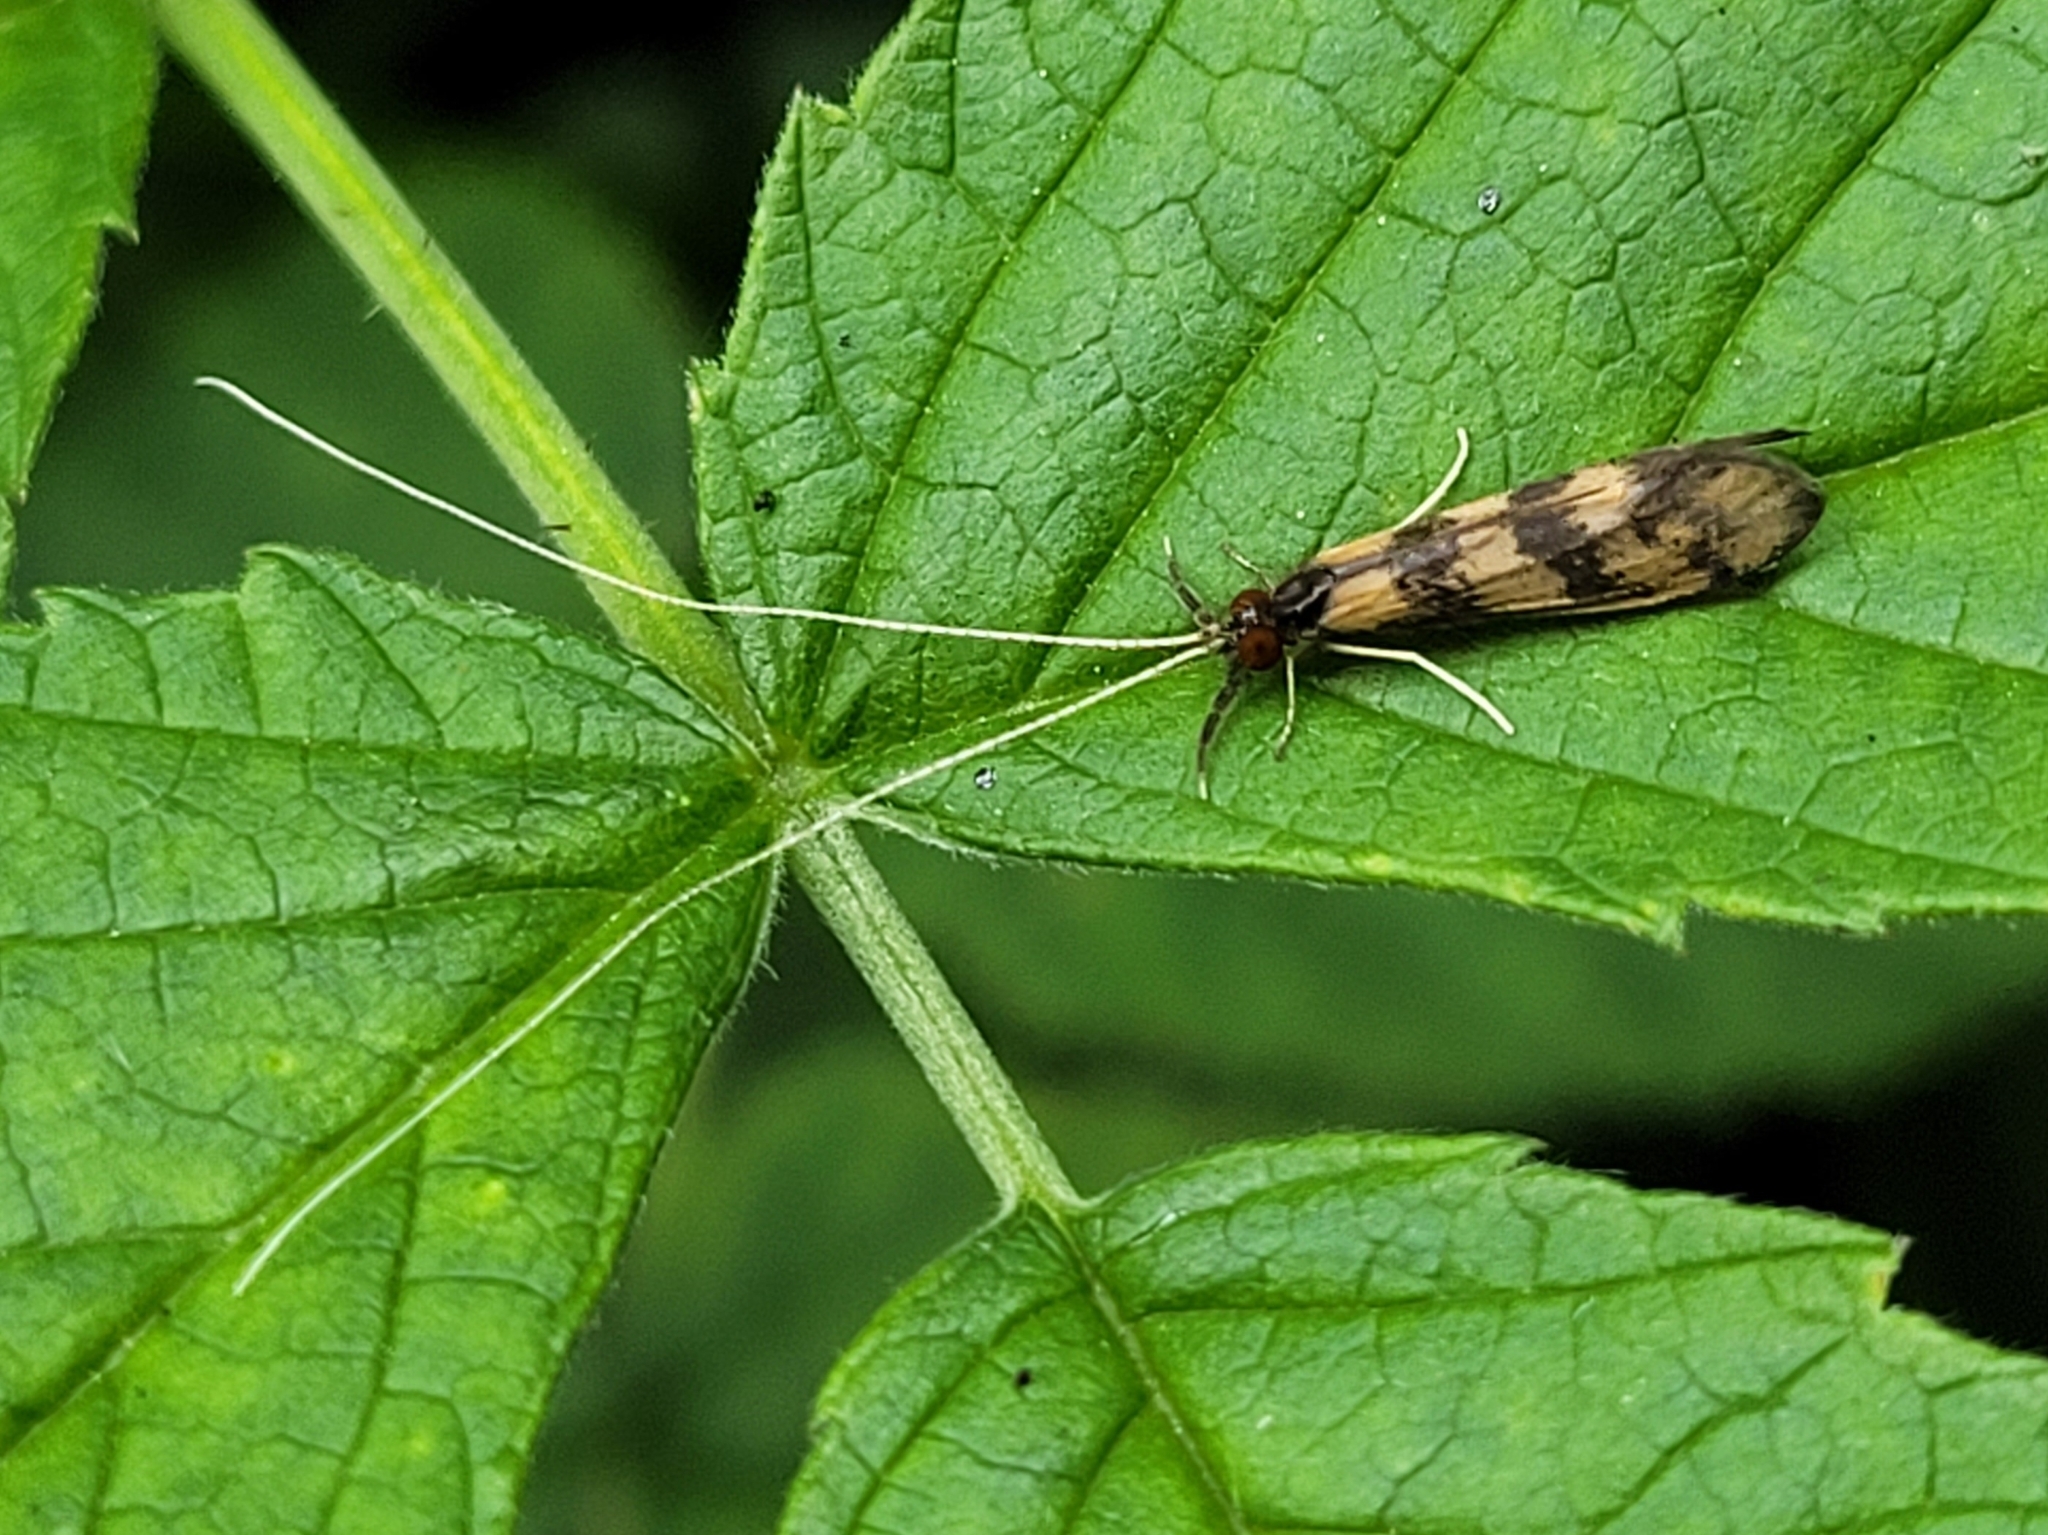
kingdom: Animalia
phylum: Arthropoda
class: Insecta
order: Trichoptera
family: Leptoceridae
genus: Mystacides
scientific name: Mystacides longicornis
